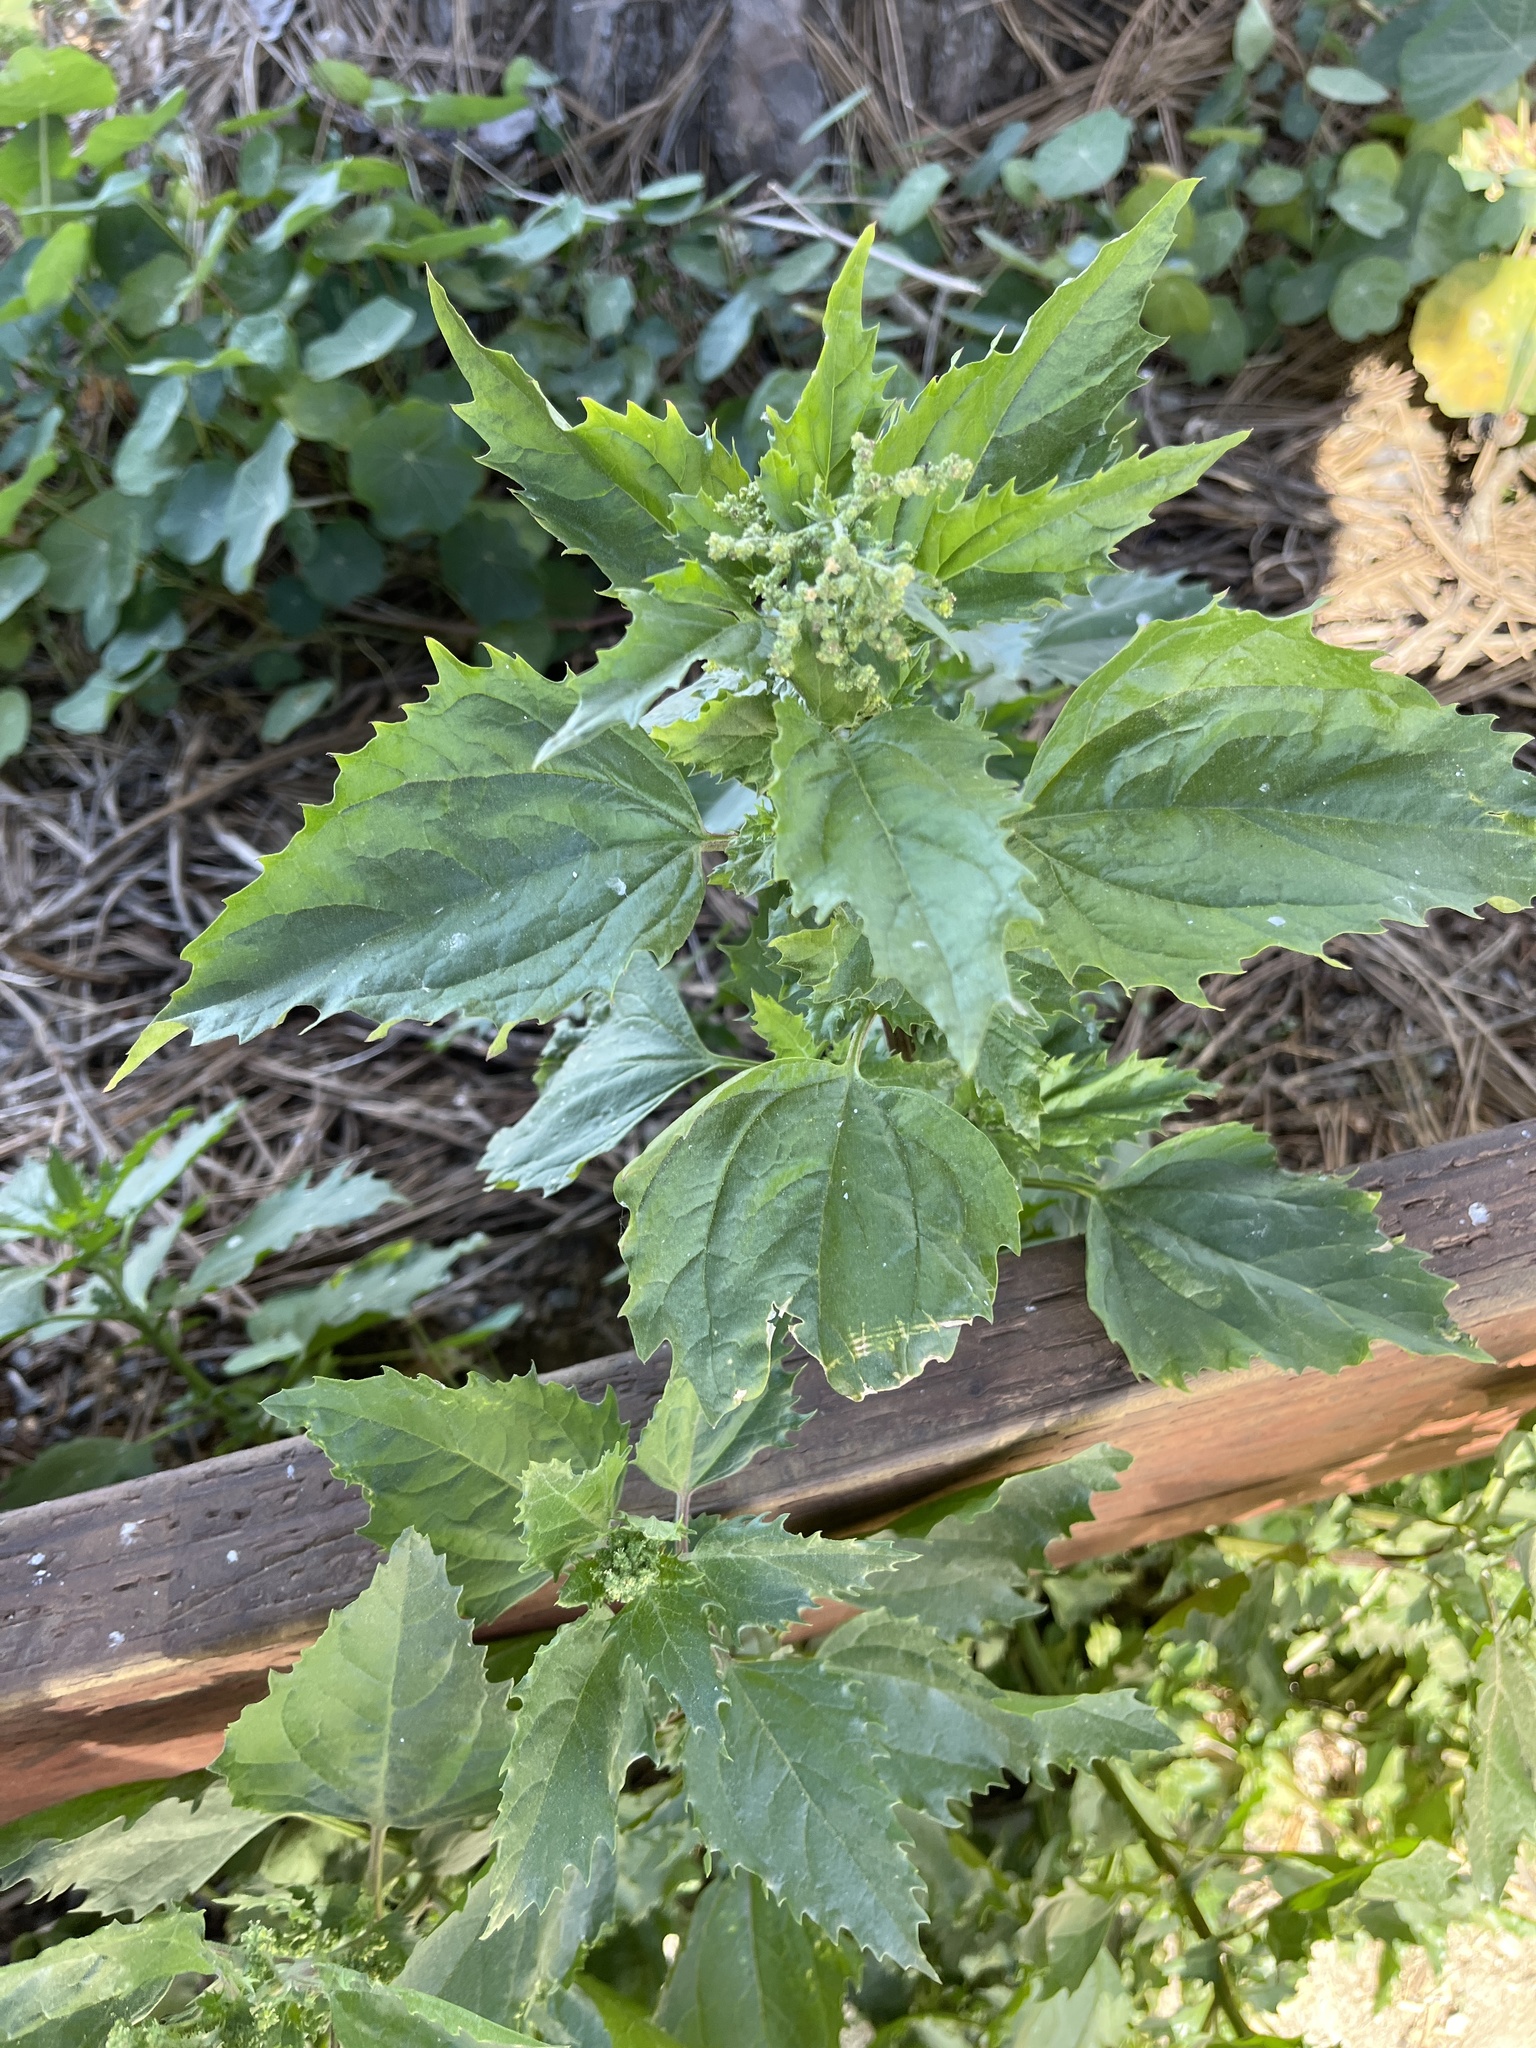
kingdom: Plantae
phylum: Tracheophyta
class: Magnoliopsida
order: Caryophyllales
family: Amaranthaceae
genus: Chenopodiastrum
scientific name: Chenopodiastrum murale
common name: Sowbane
